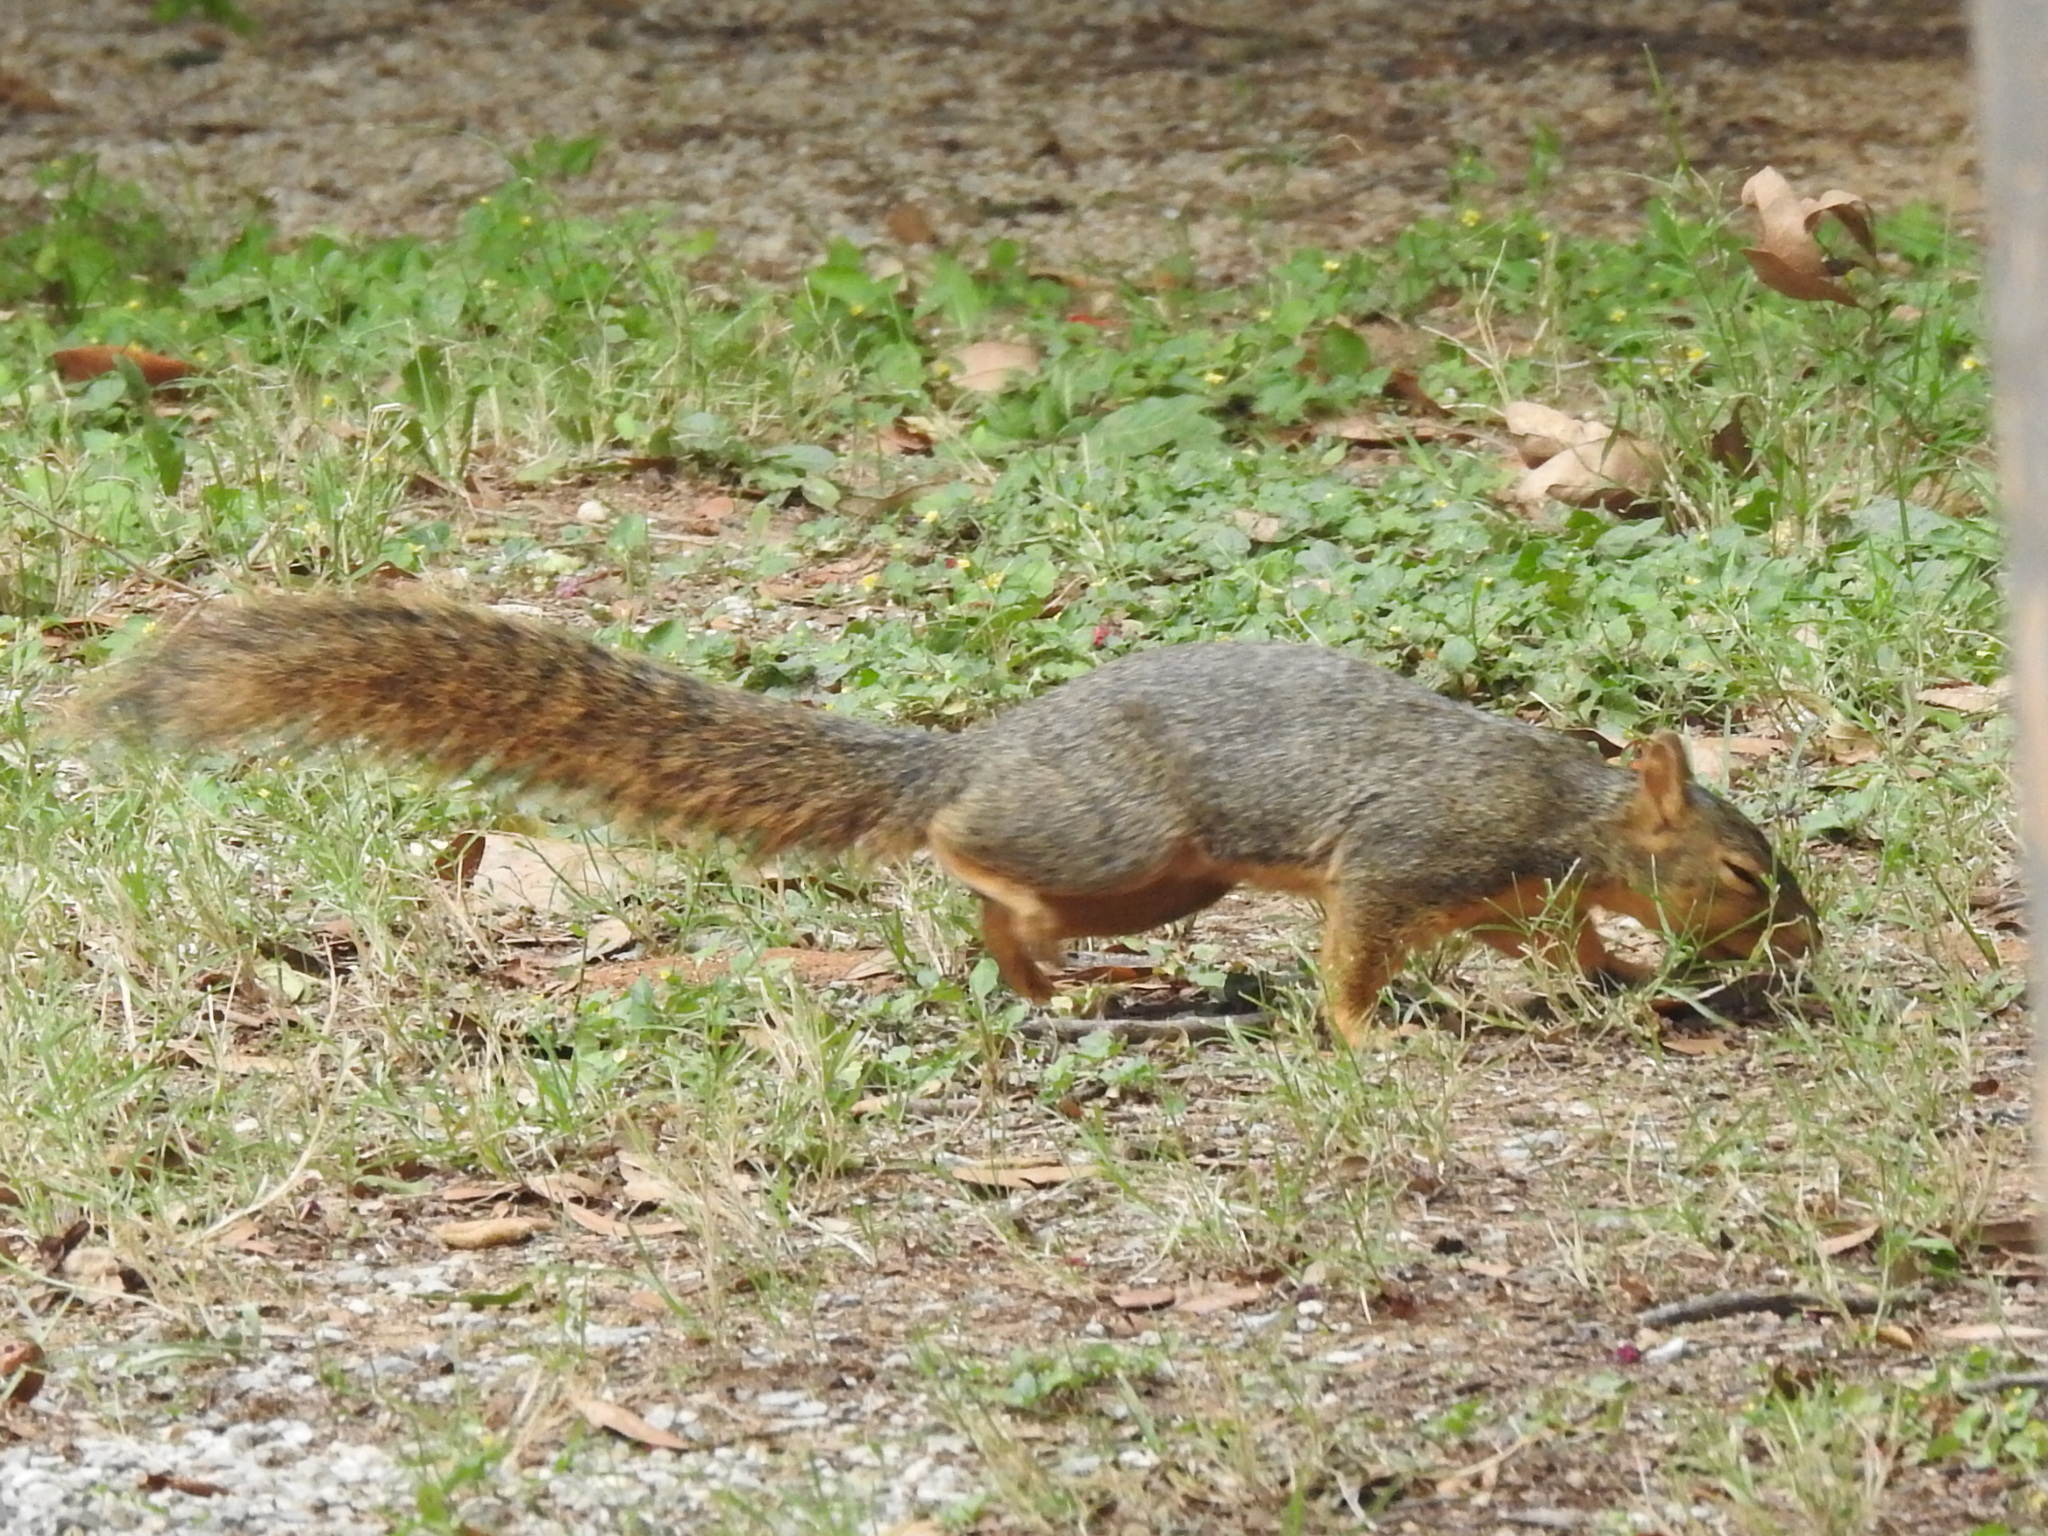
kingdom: Animalia
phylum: Chordata
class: Mammalia
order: Rodentia
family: Sciuridae
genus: Sciurus
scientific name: Sciurus niger
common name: Fox squirrel
